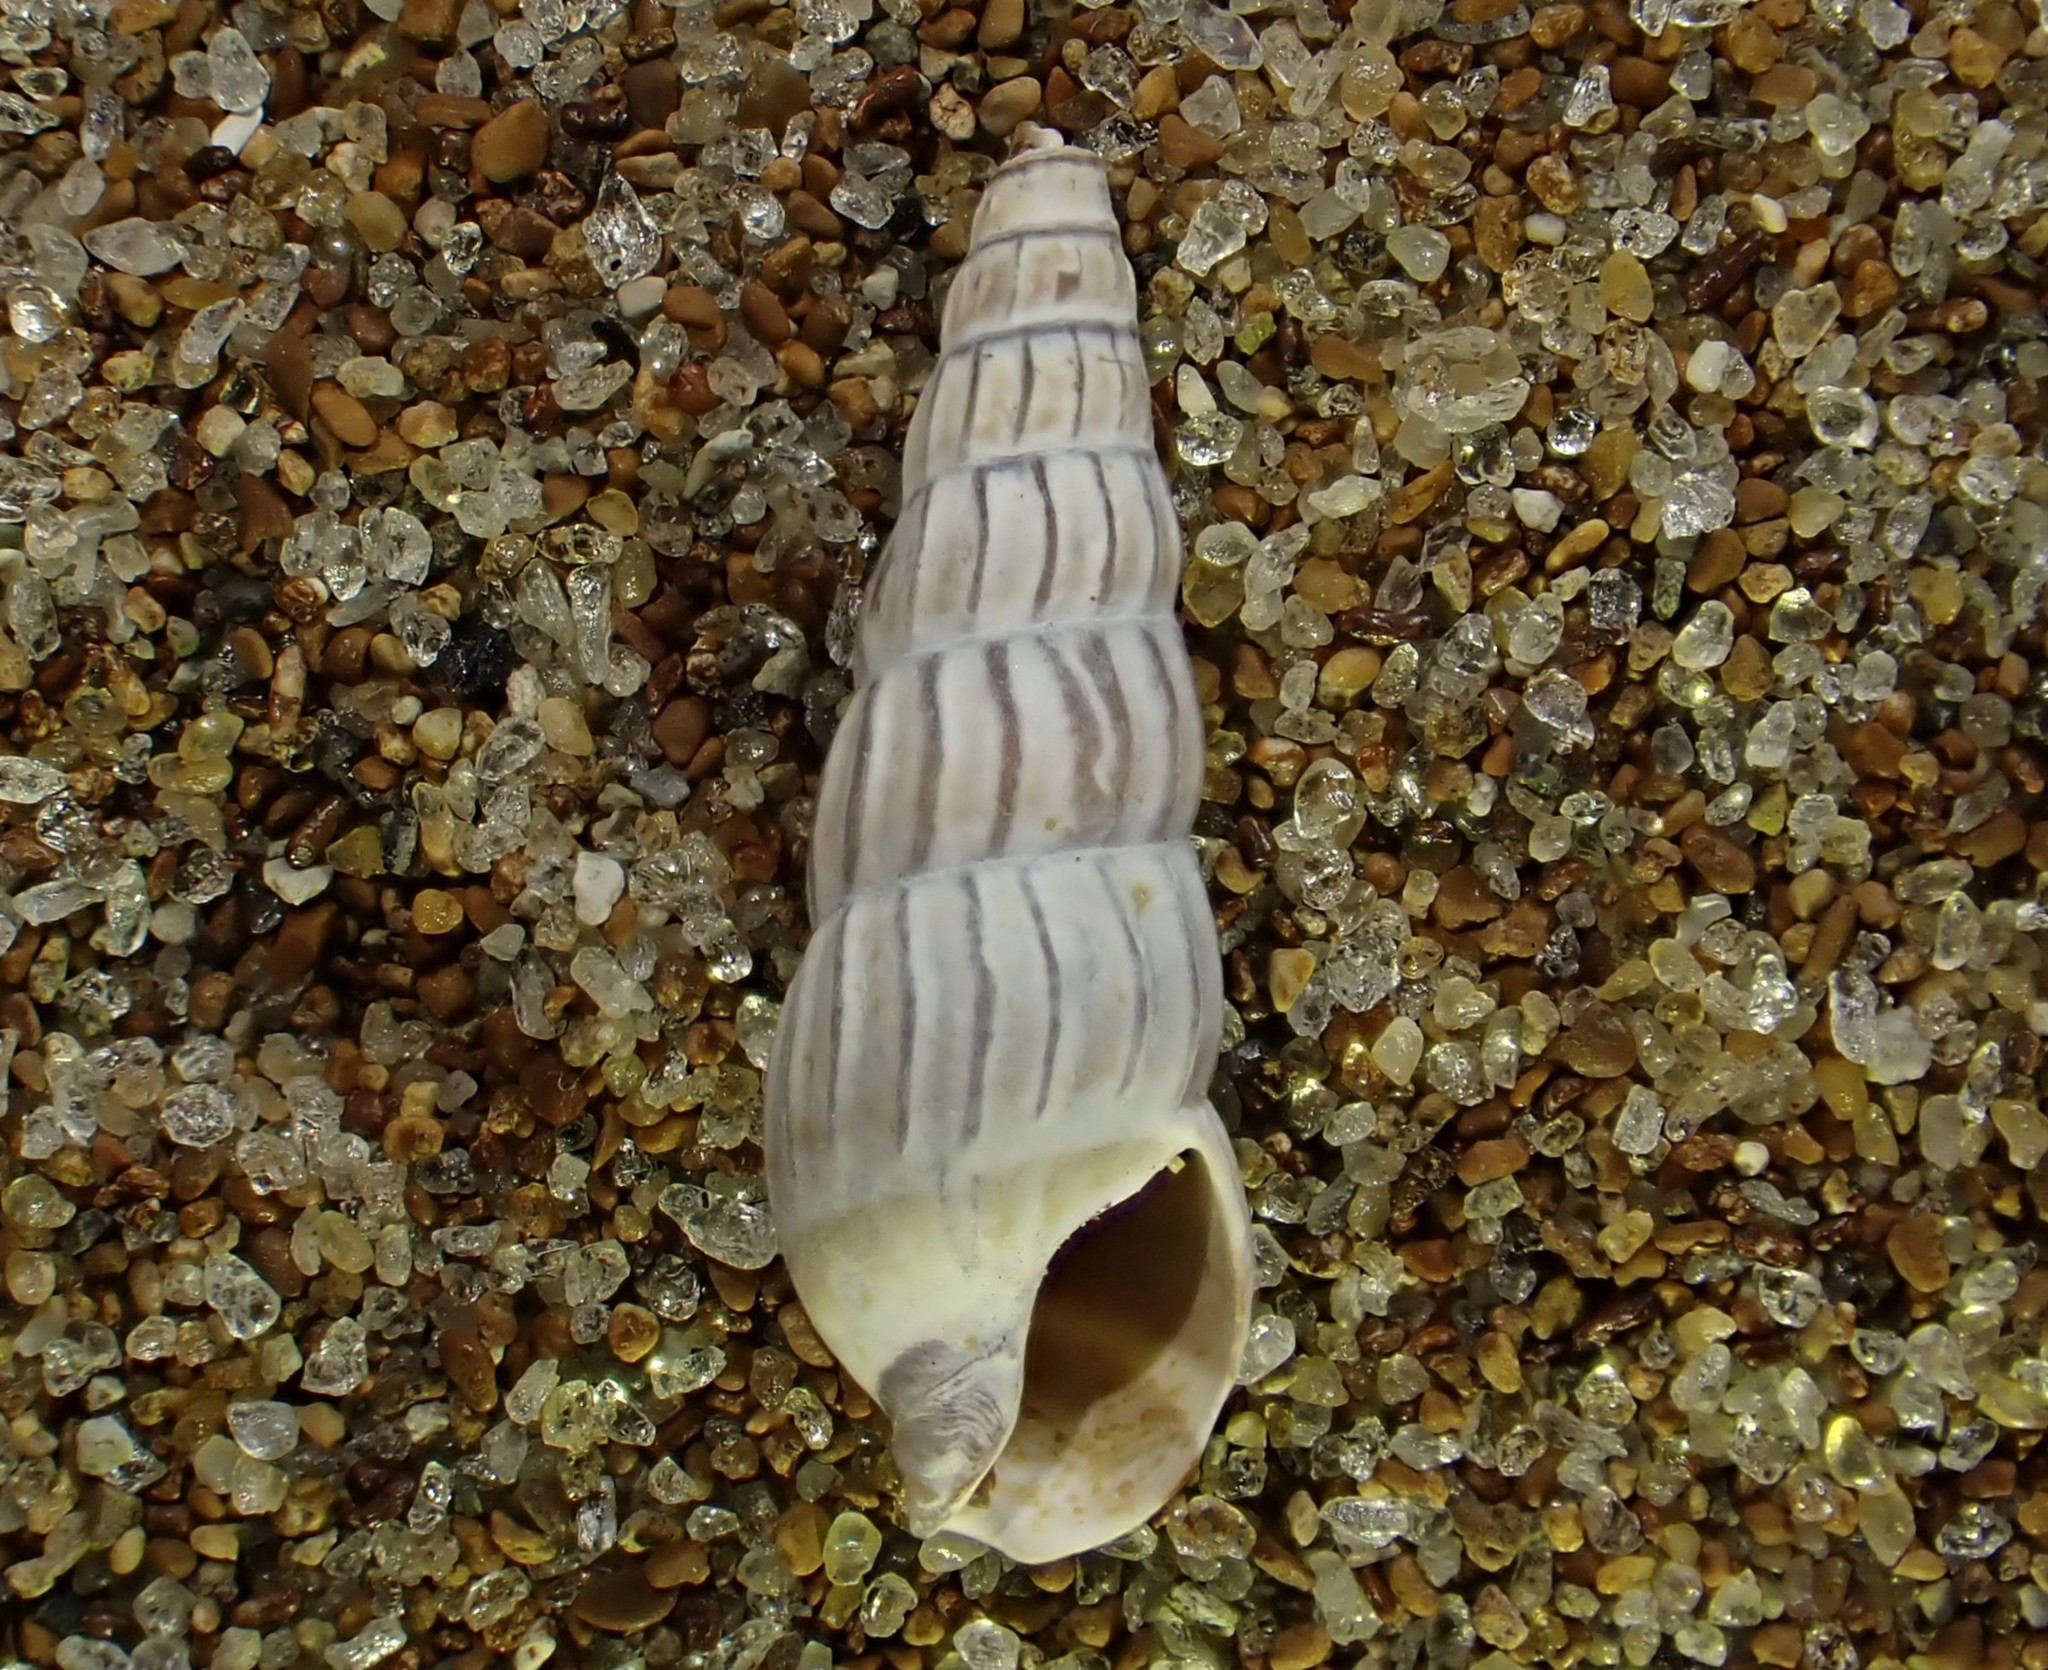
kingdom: Animalia
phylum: Mollusca
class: Gastropoda
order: Neogastropoda
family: Terebridae
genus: Duplicaria
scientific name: Duplicaria tristis
